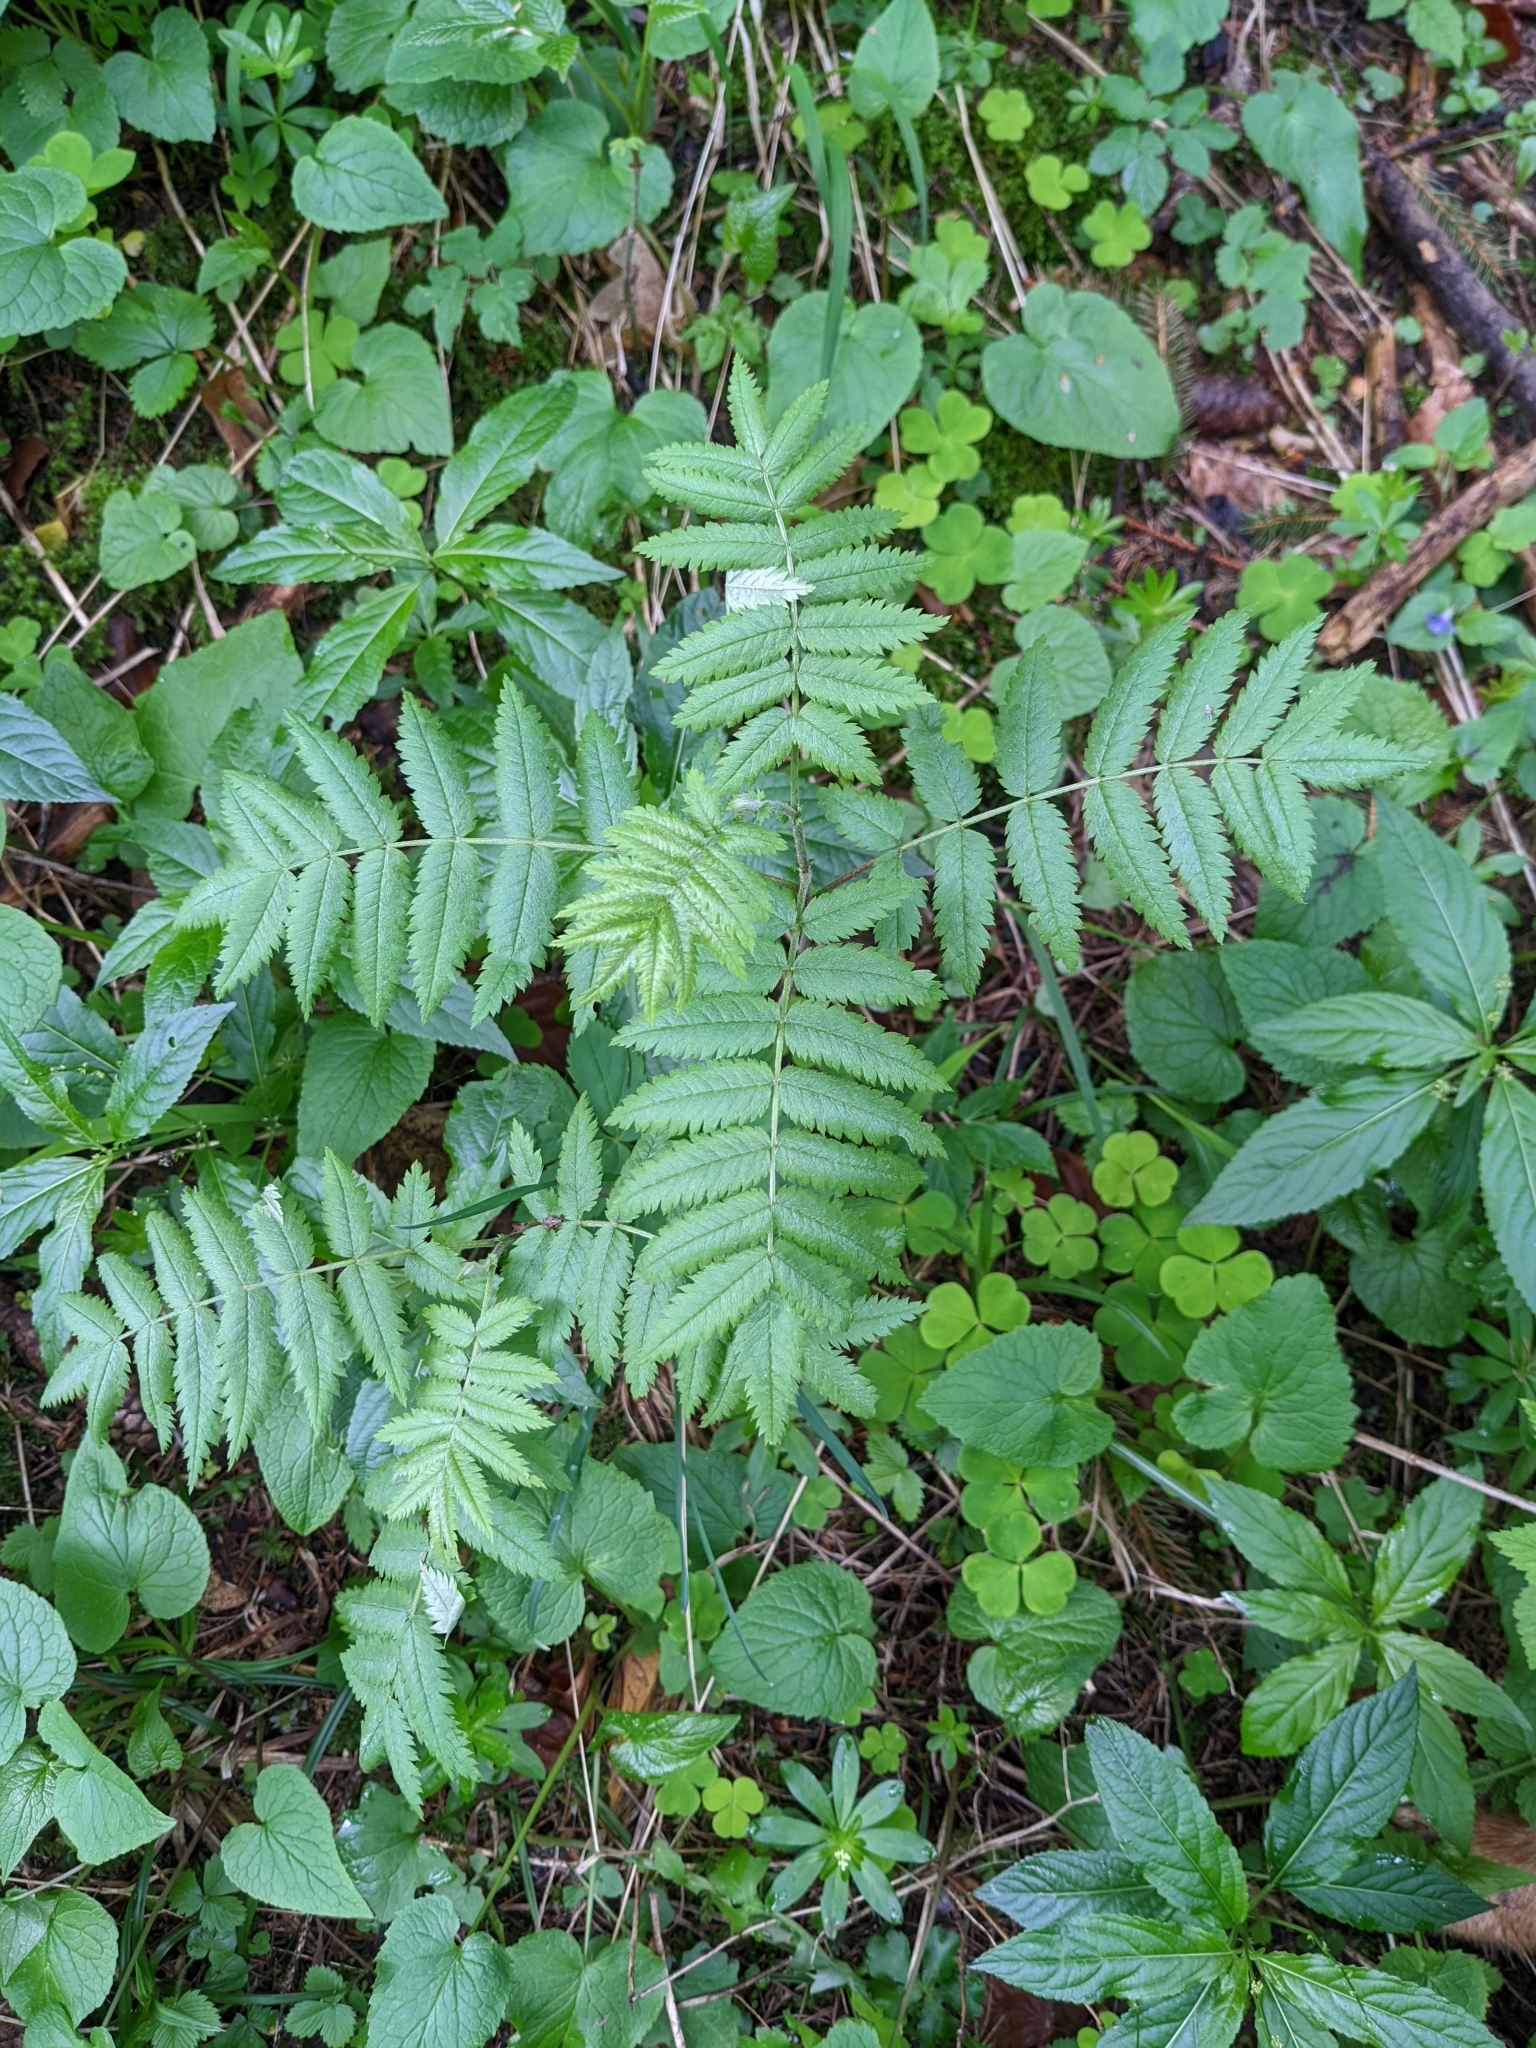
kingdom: Plantae
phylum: Tracheophyta
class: Magnoliopsida
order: Rosales
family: Rosaceae
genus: Sorbus
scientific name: Sorbus aucuparia
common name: Rowan
